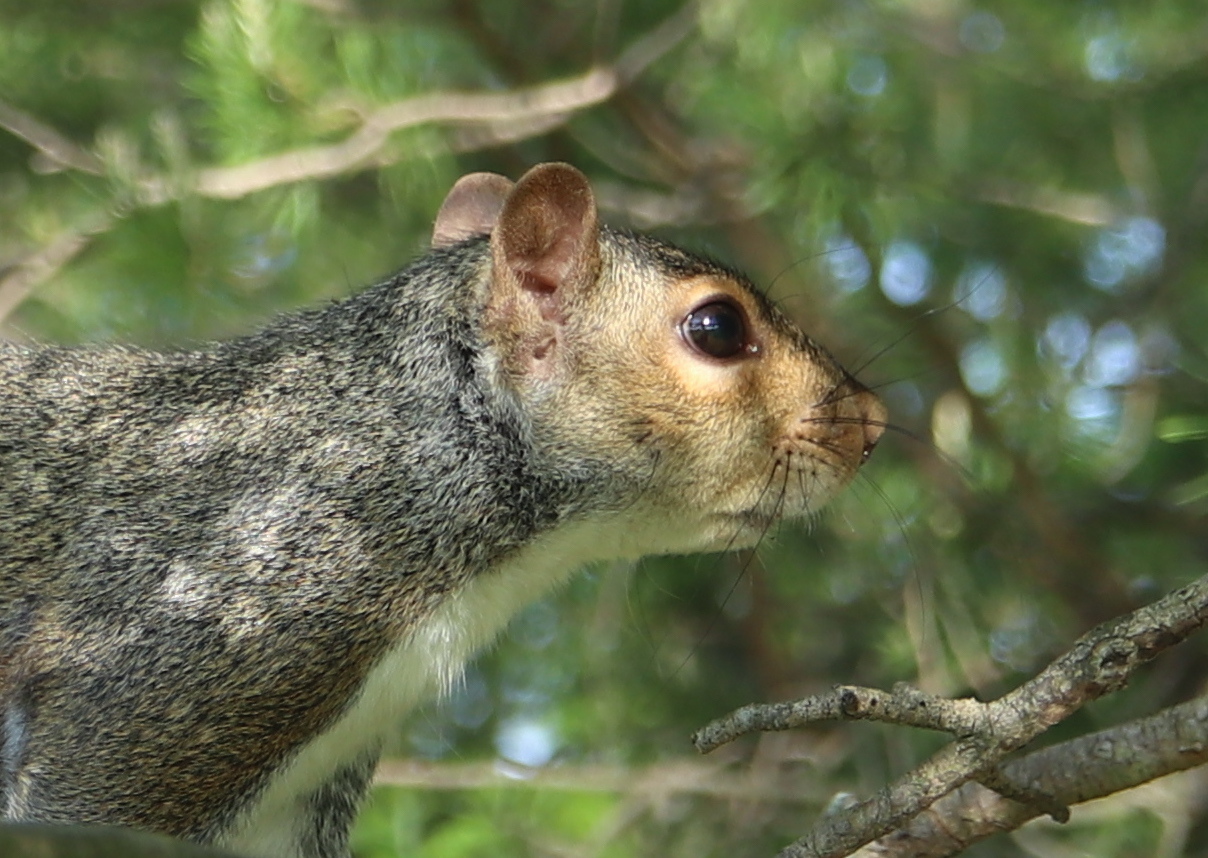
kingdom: Animalia
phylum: Chordata
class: Mammalia
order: Rodentia
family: Sciuridae
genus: Sciurus
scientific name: Sciurus carolinensis
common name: Eastern gray squirrel
